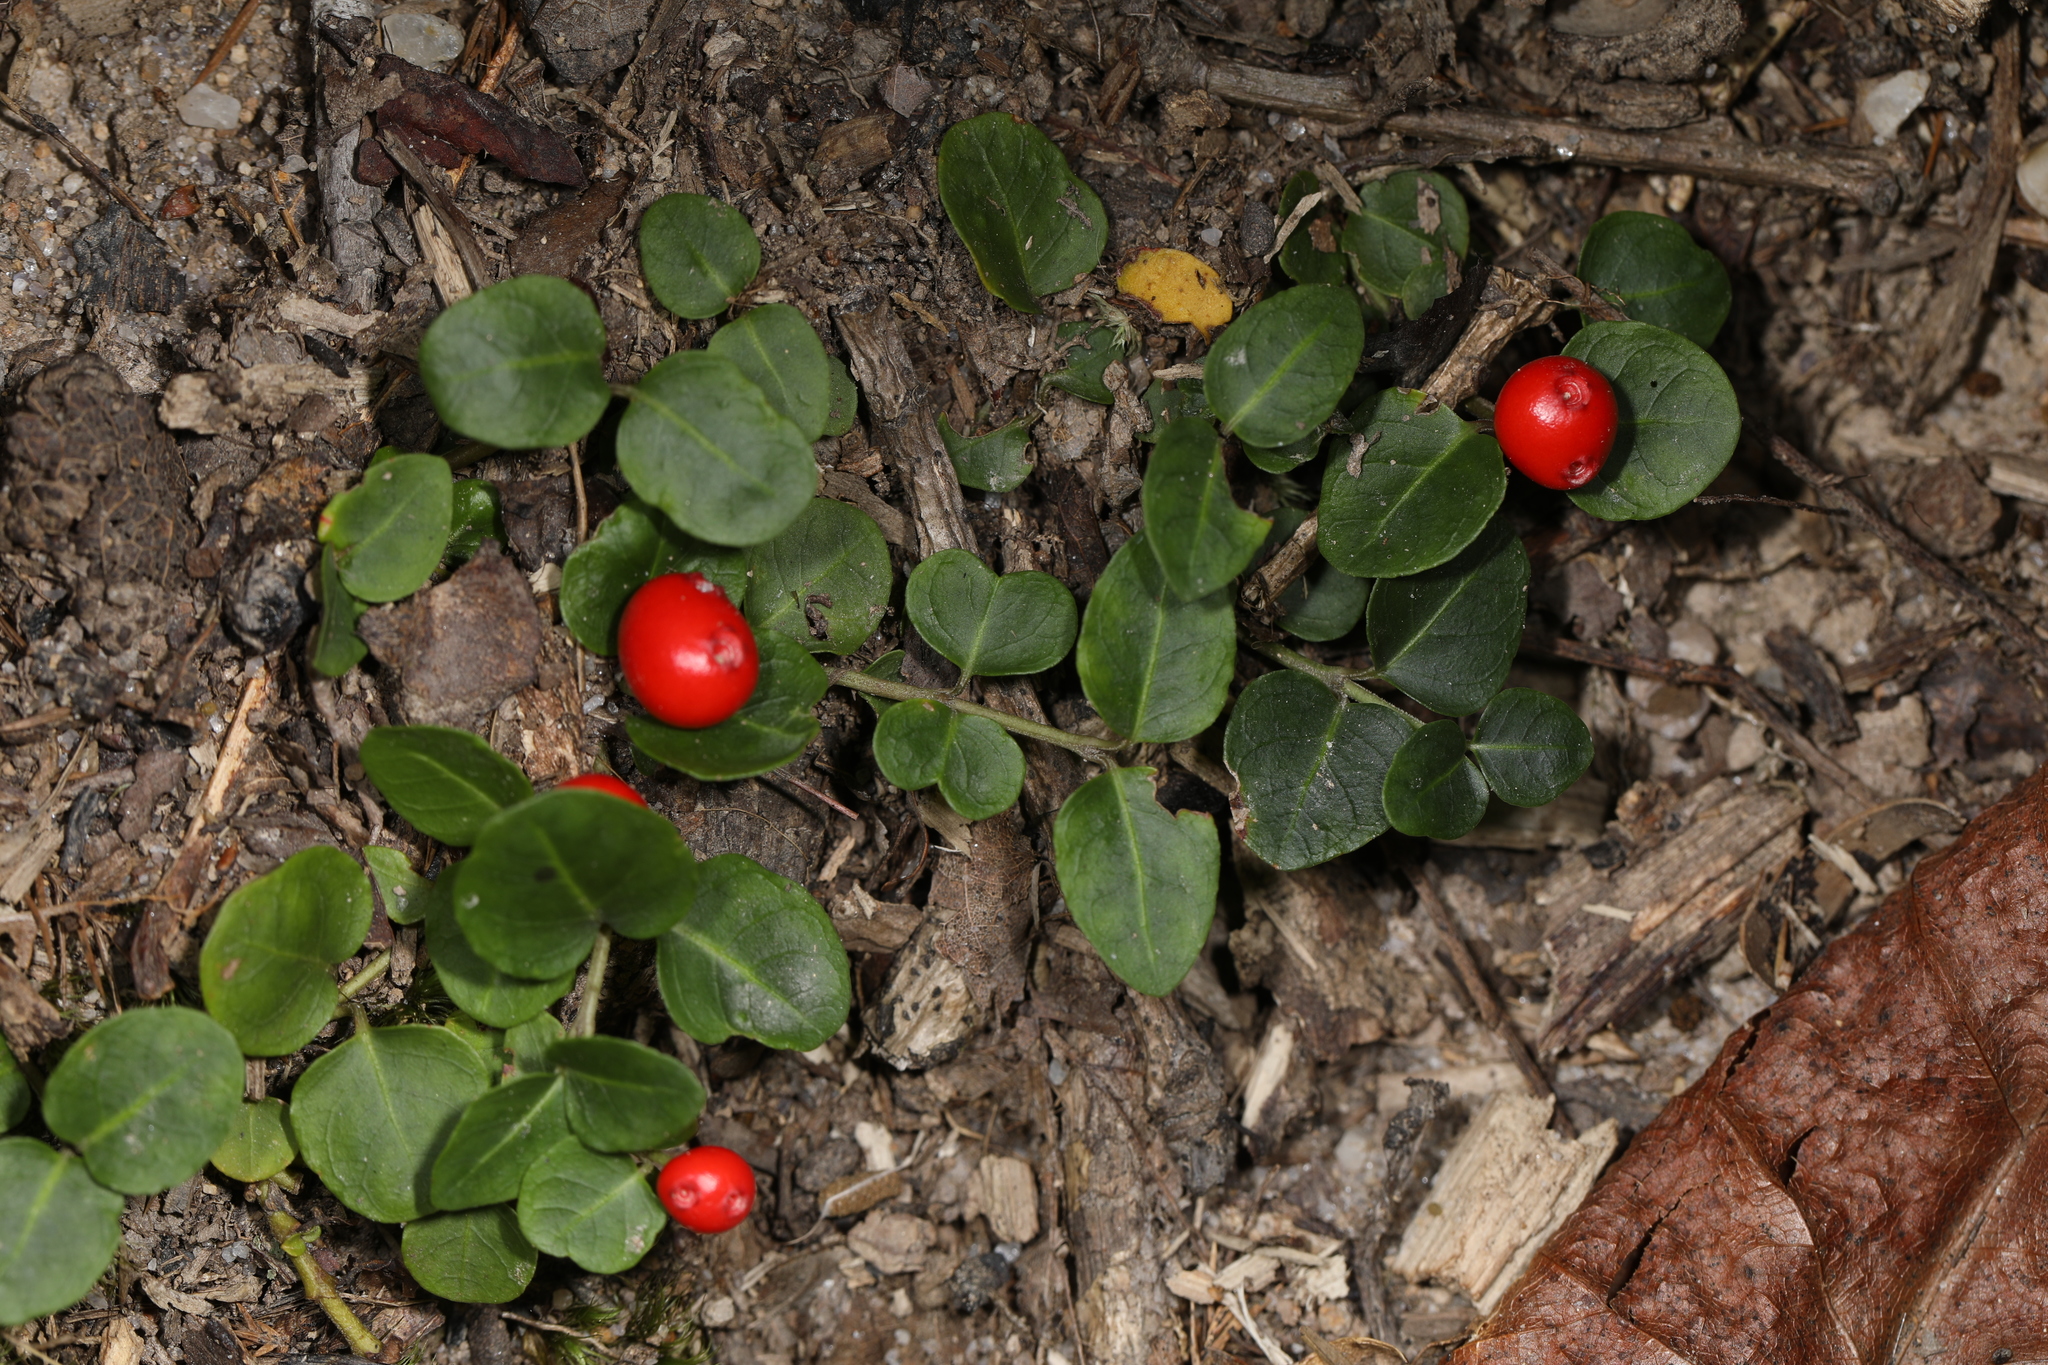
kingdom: Plantae
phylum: Tracheophyta
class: Magnoliopsida
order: Gentianales
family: Rubiaceae
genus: Mitchella
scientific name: Mitchella repens
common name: Partridge-berry
